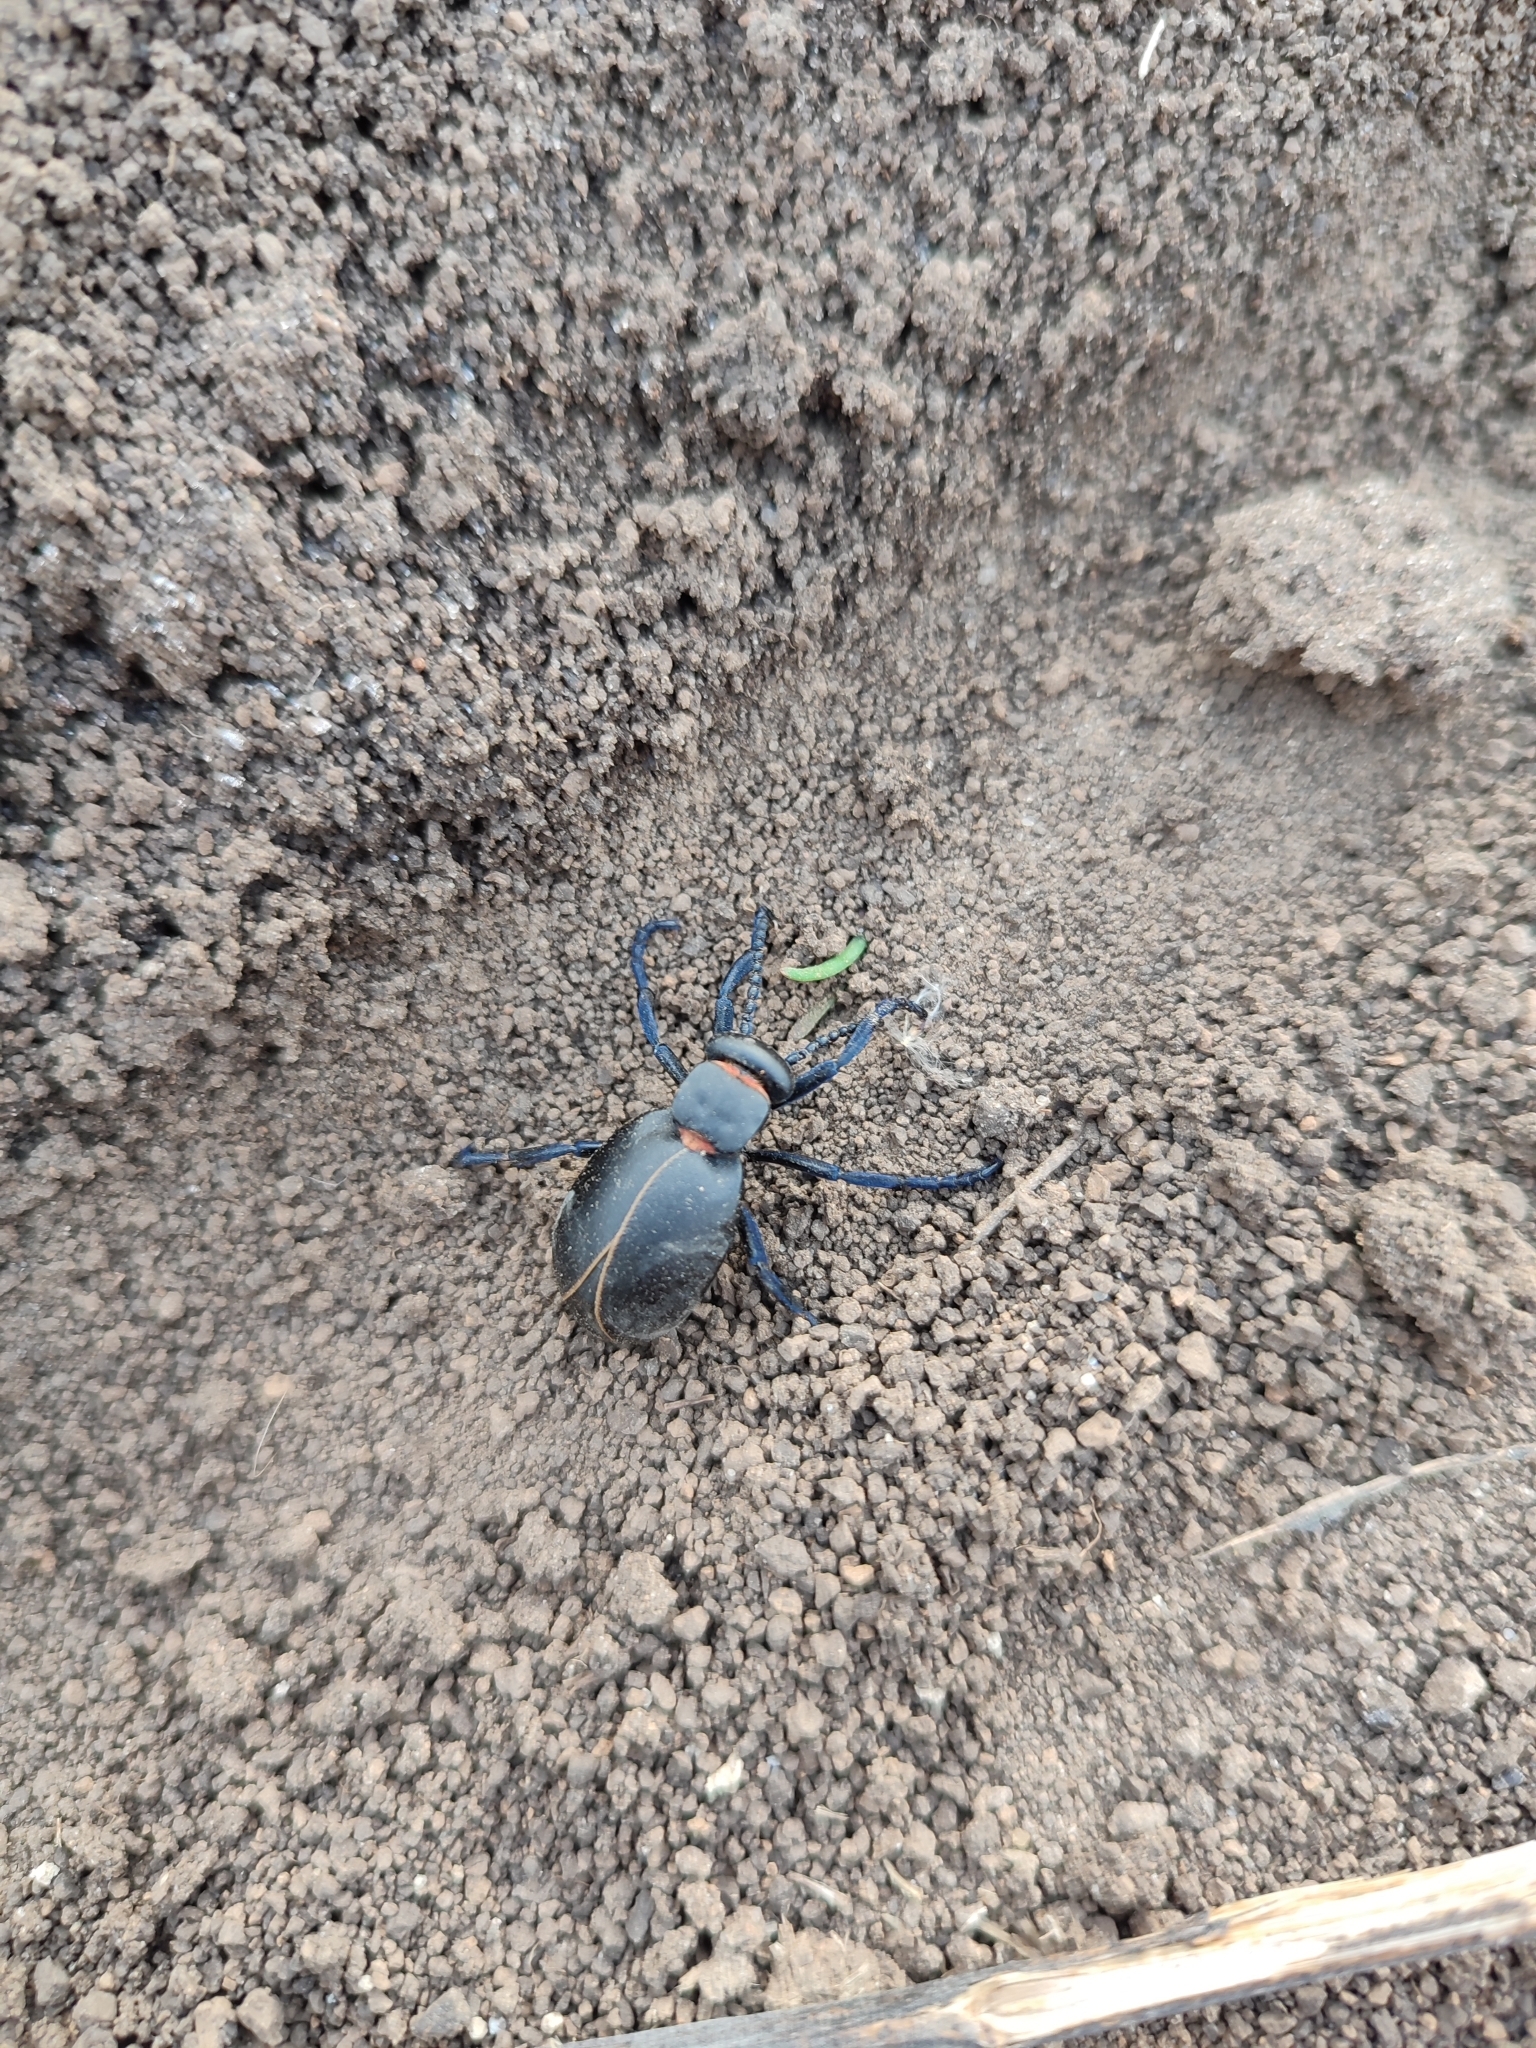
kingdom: Animalia
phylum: Arthropoda
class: Insecta
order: Coleoptera
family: Meloidae
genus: Meloe
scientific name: Meloe hungarus
